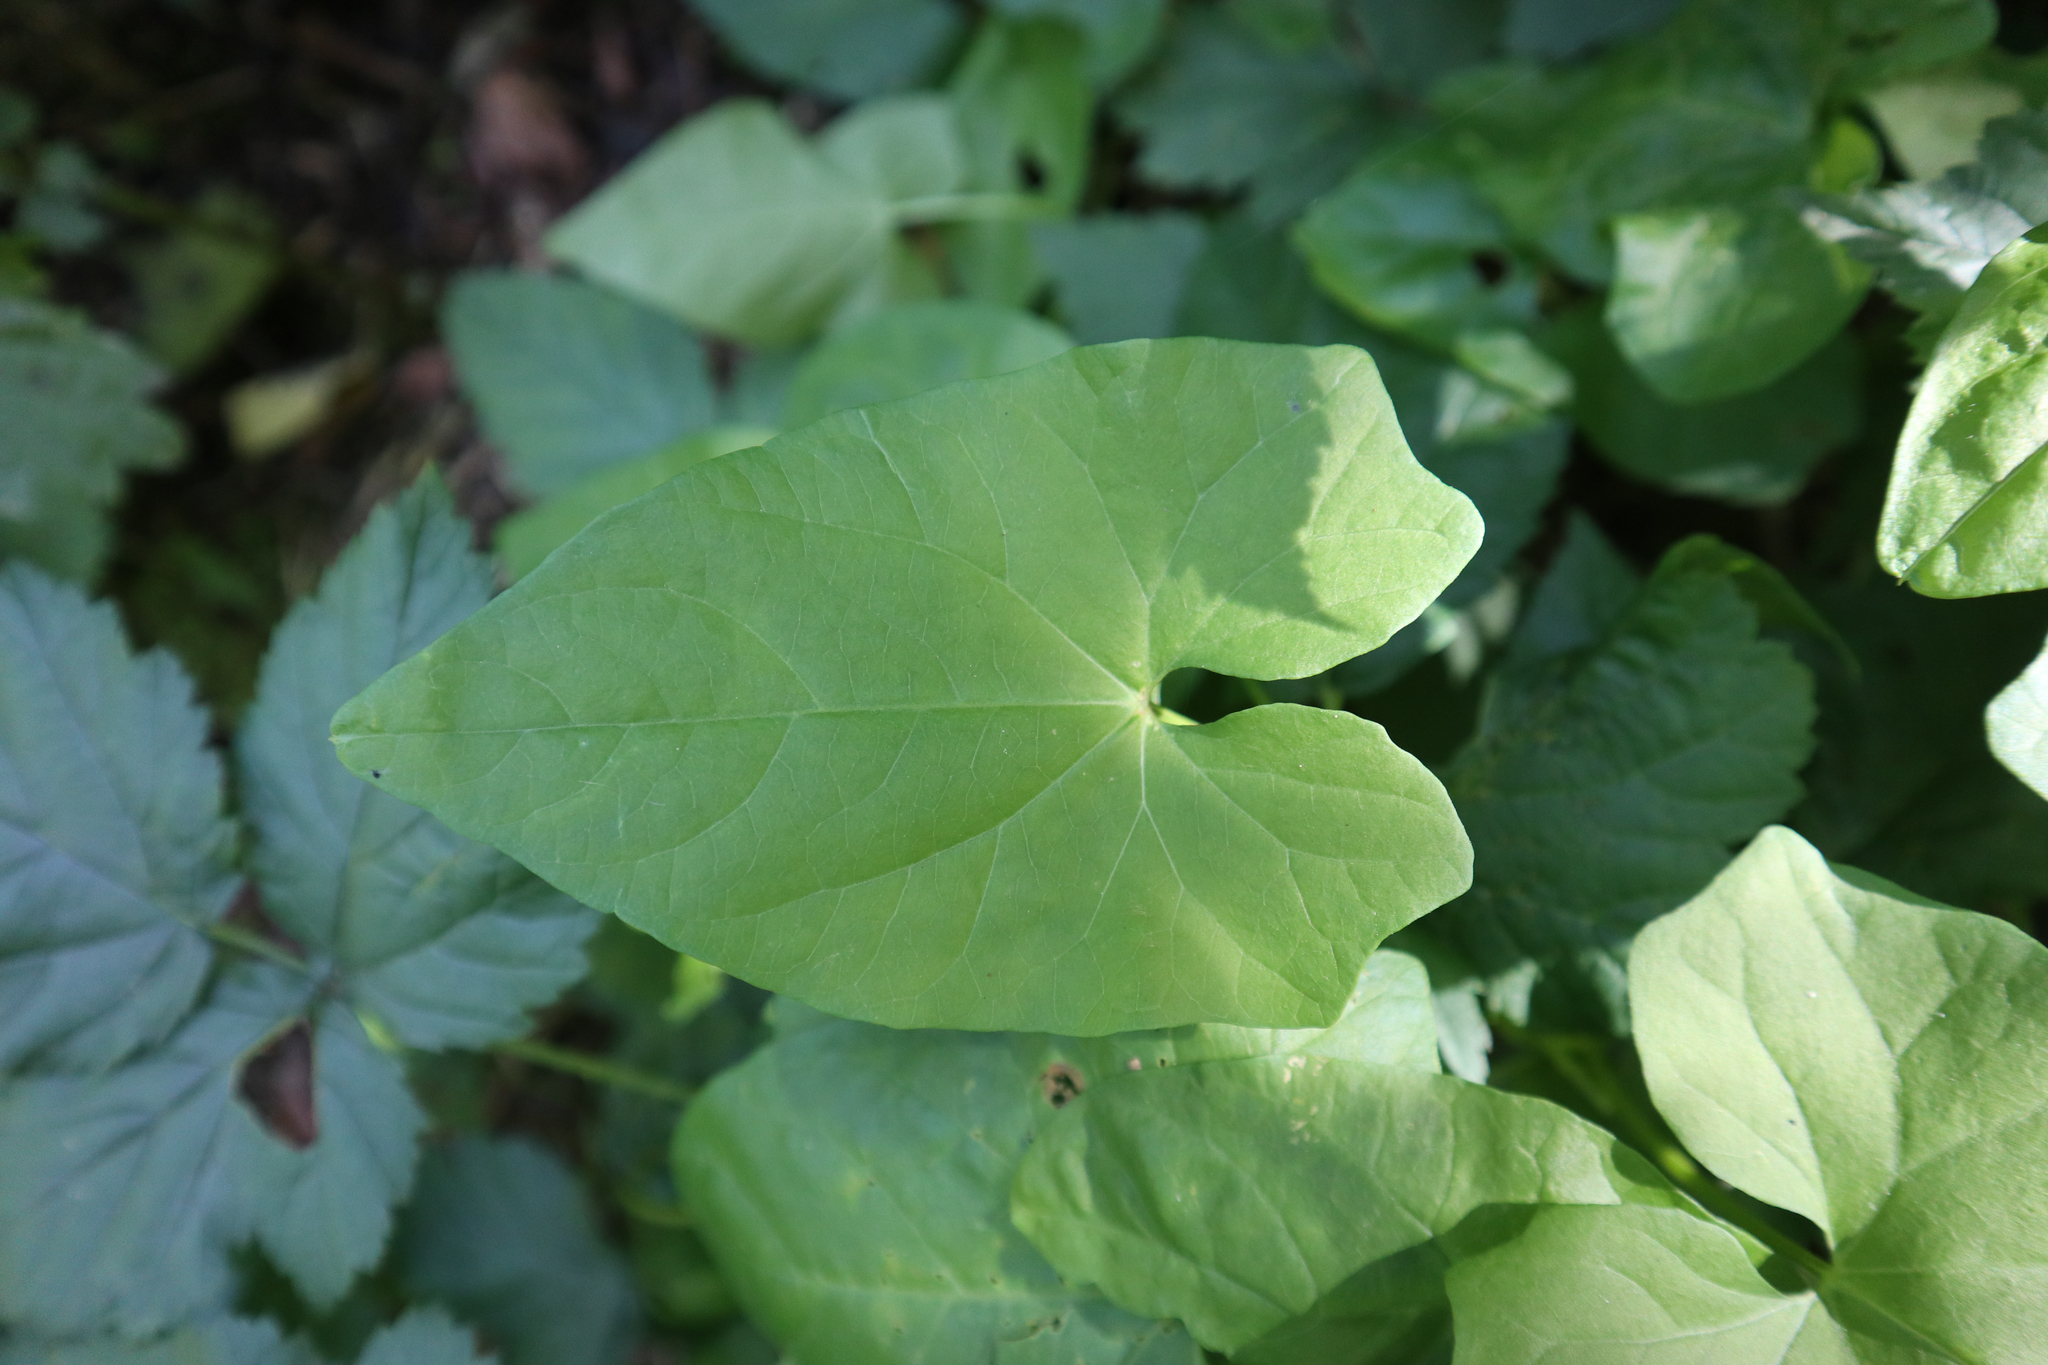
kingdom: Plantae
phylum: Tracheophyta
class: Magnoliopsida
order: Solanales
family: Convolvulaceae
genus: Calystegia
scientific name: Calystegia sepium
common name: Hedge bindweed
